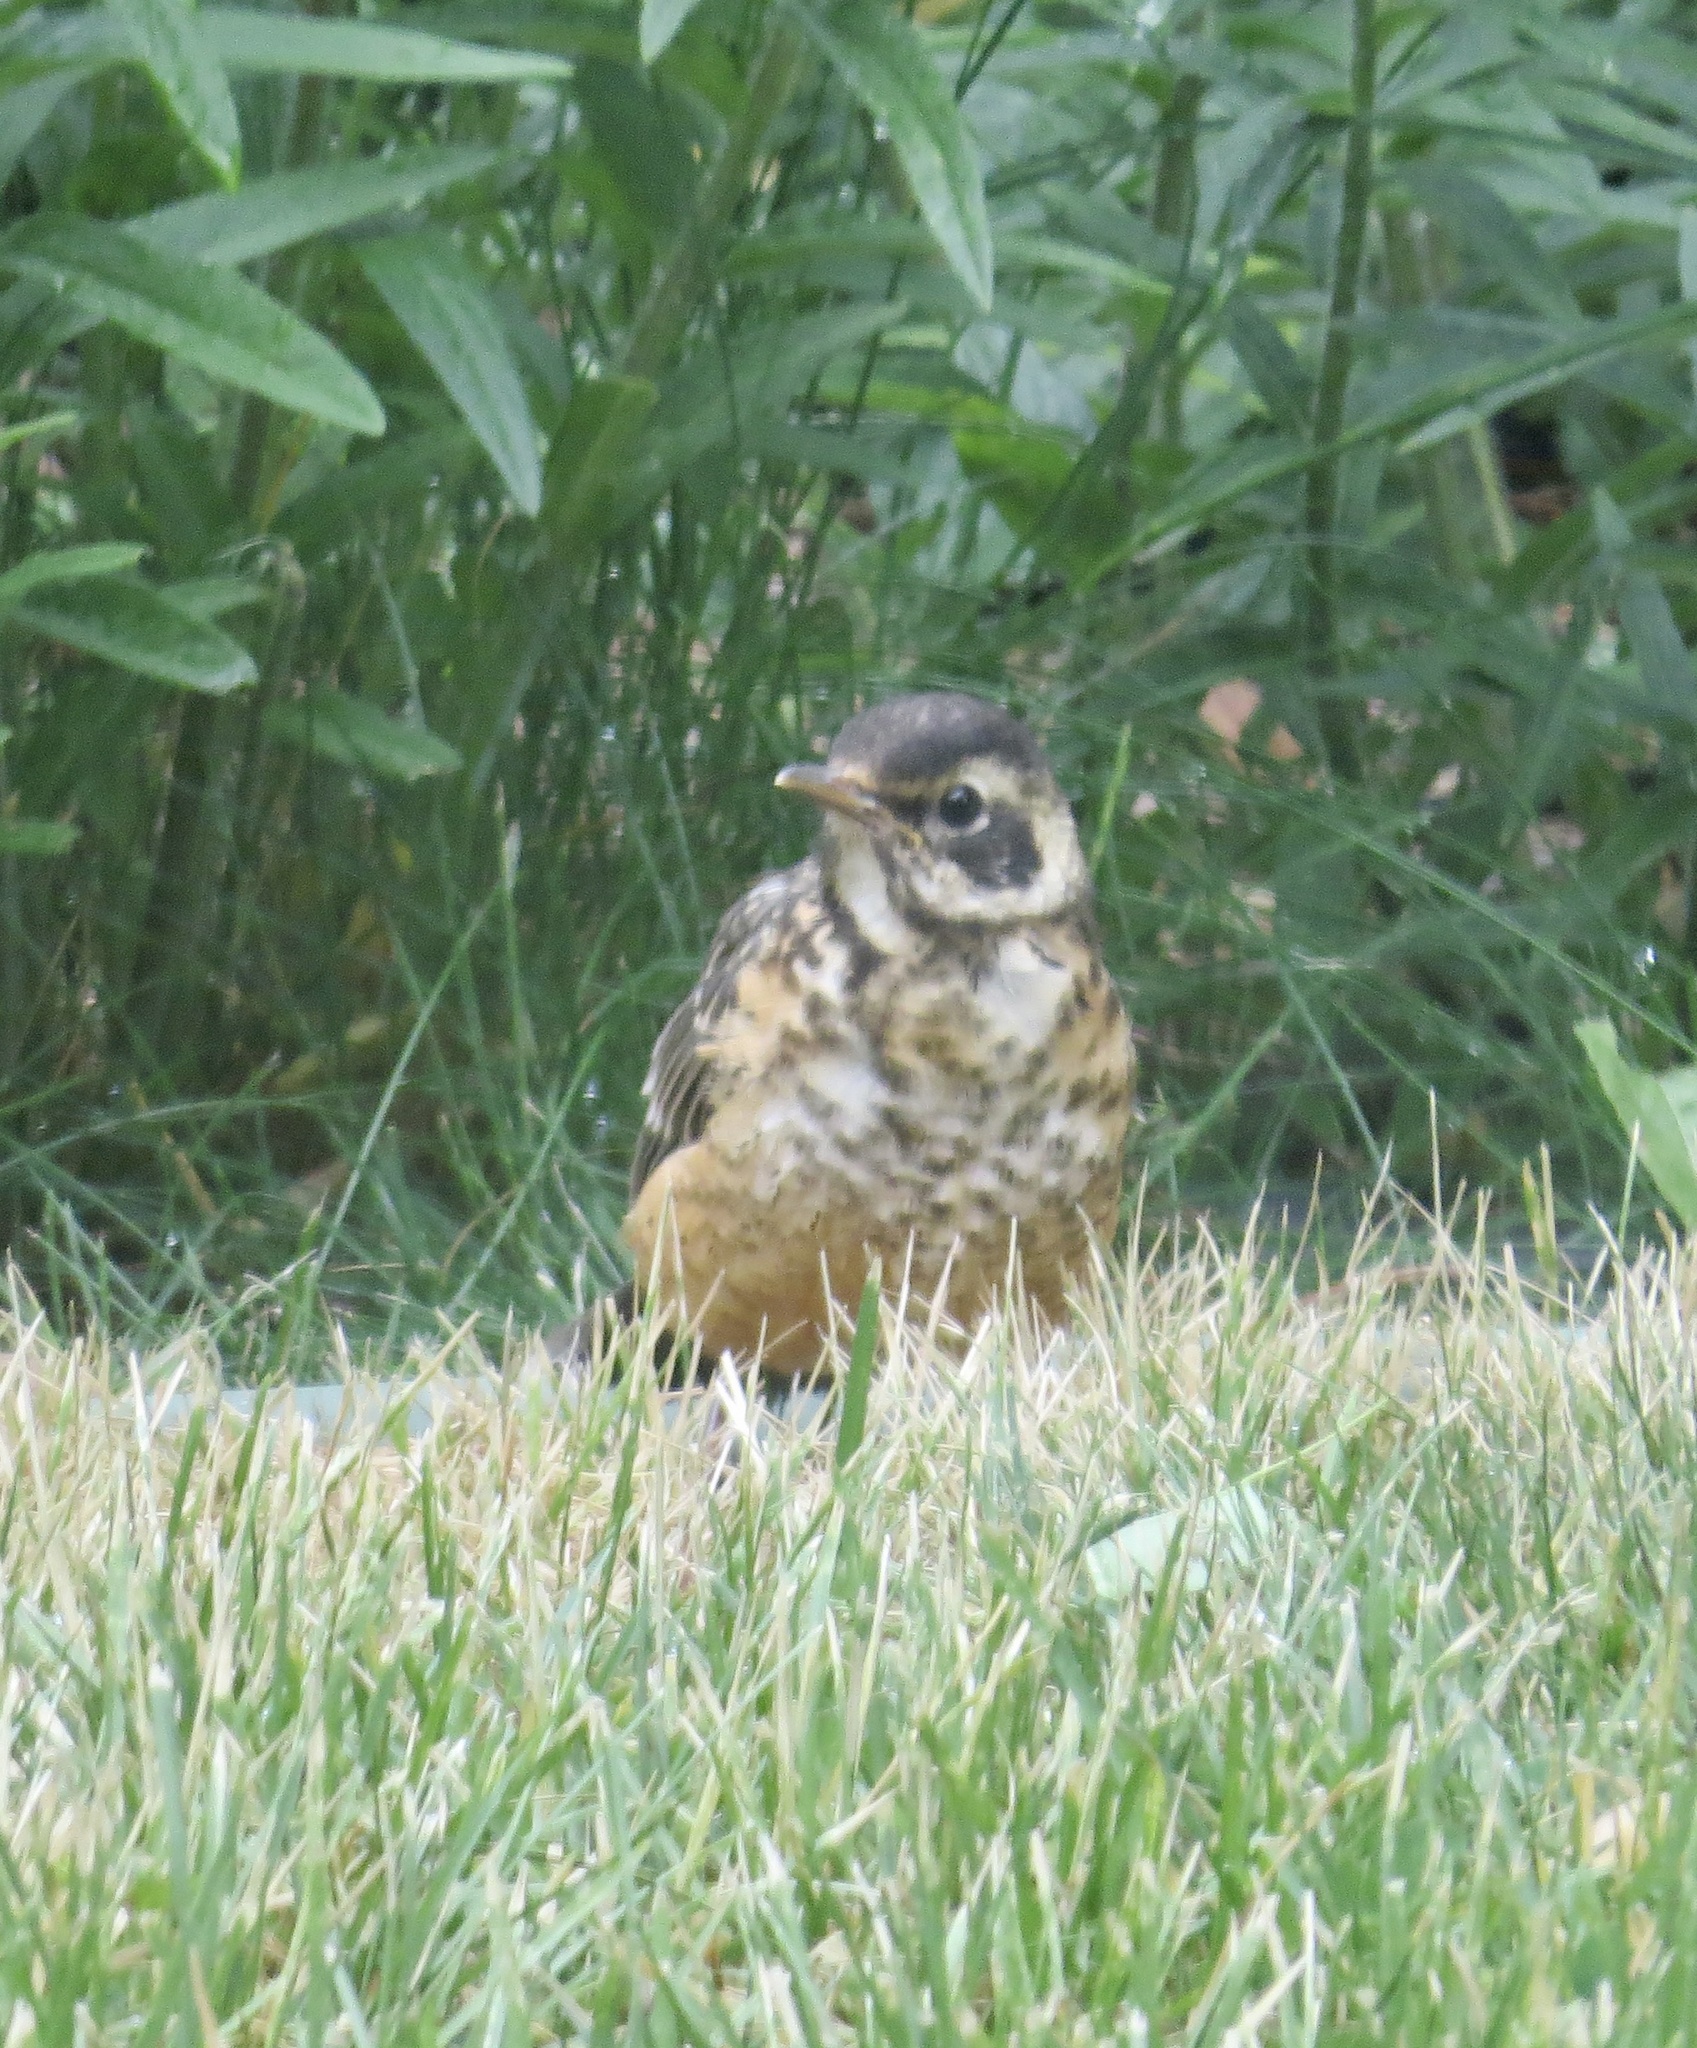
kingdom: Animalia
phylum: Chordata
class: Aves
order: Passeriformes
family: Turdidae
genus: Turdus
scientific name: Turdus migratorius
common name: American robin
